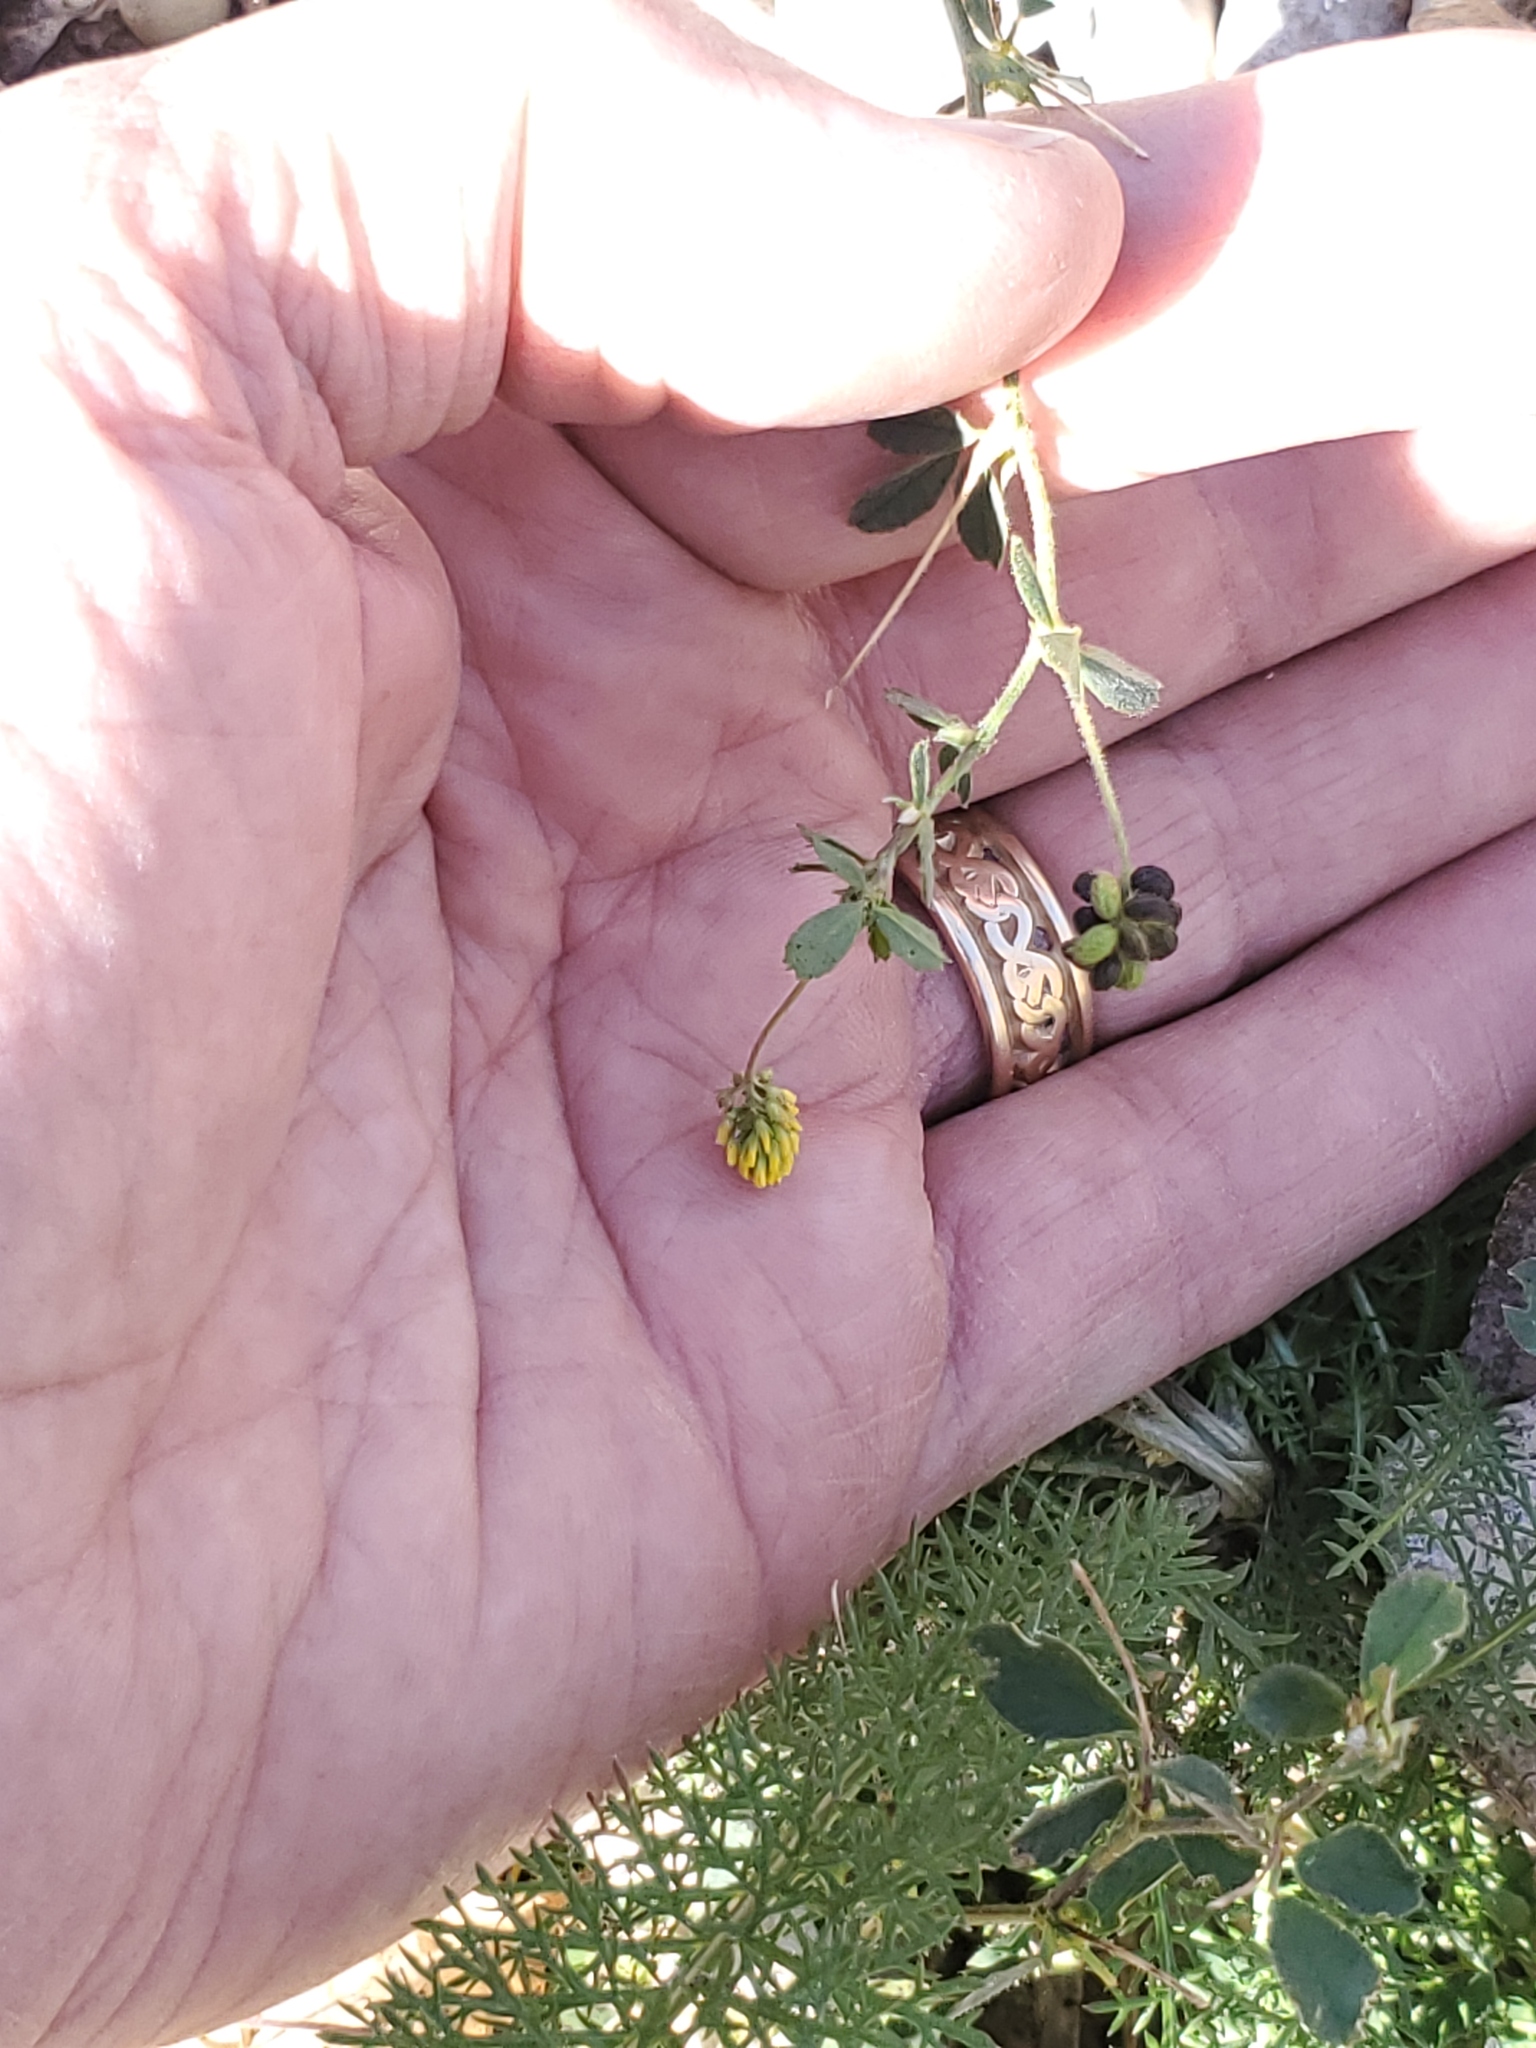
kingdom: Plantae
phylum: Tracheophyta
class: Magnoliopsida
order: Fabales
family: Fabaceae
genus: Medicago
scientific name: Medicago lupulina
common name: Black medick
